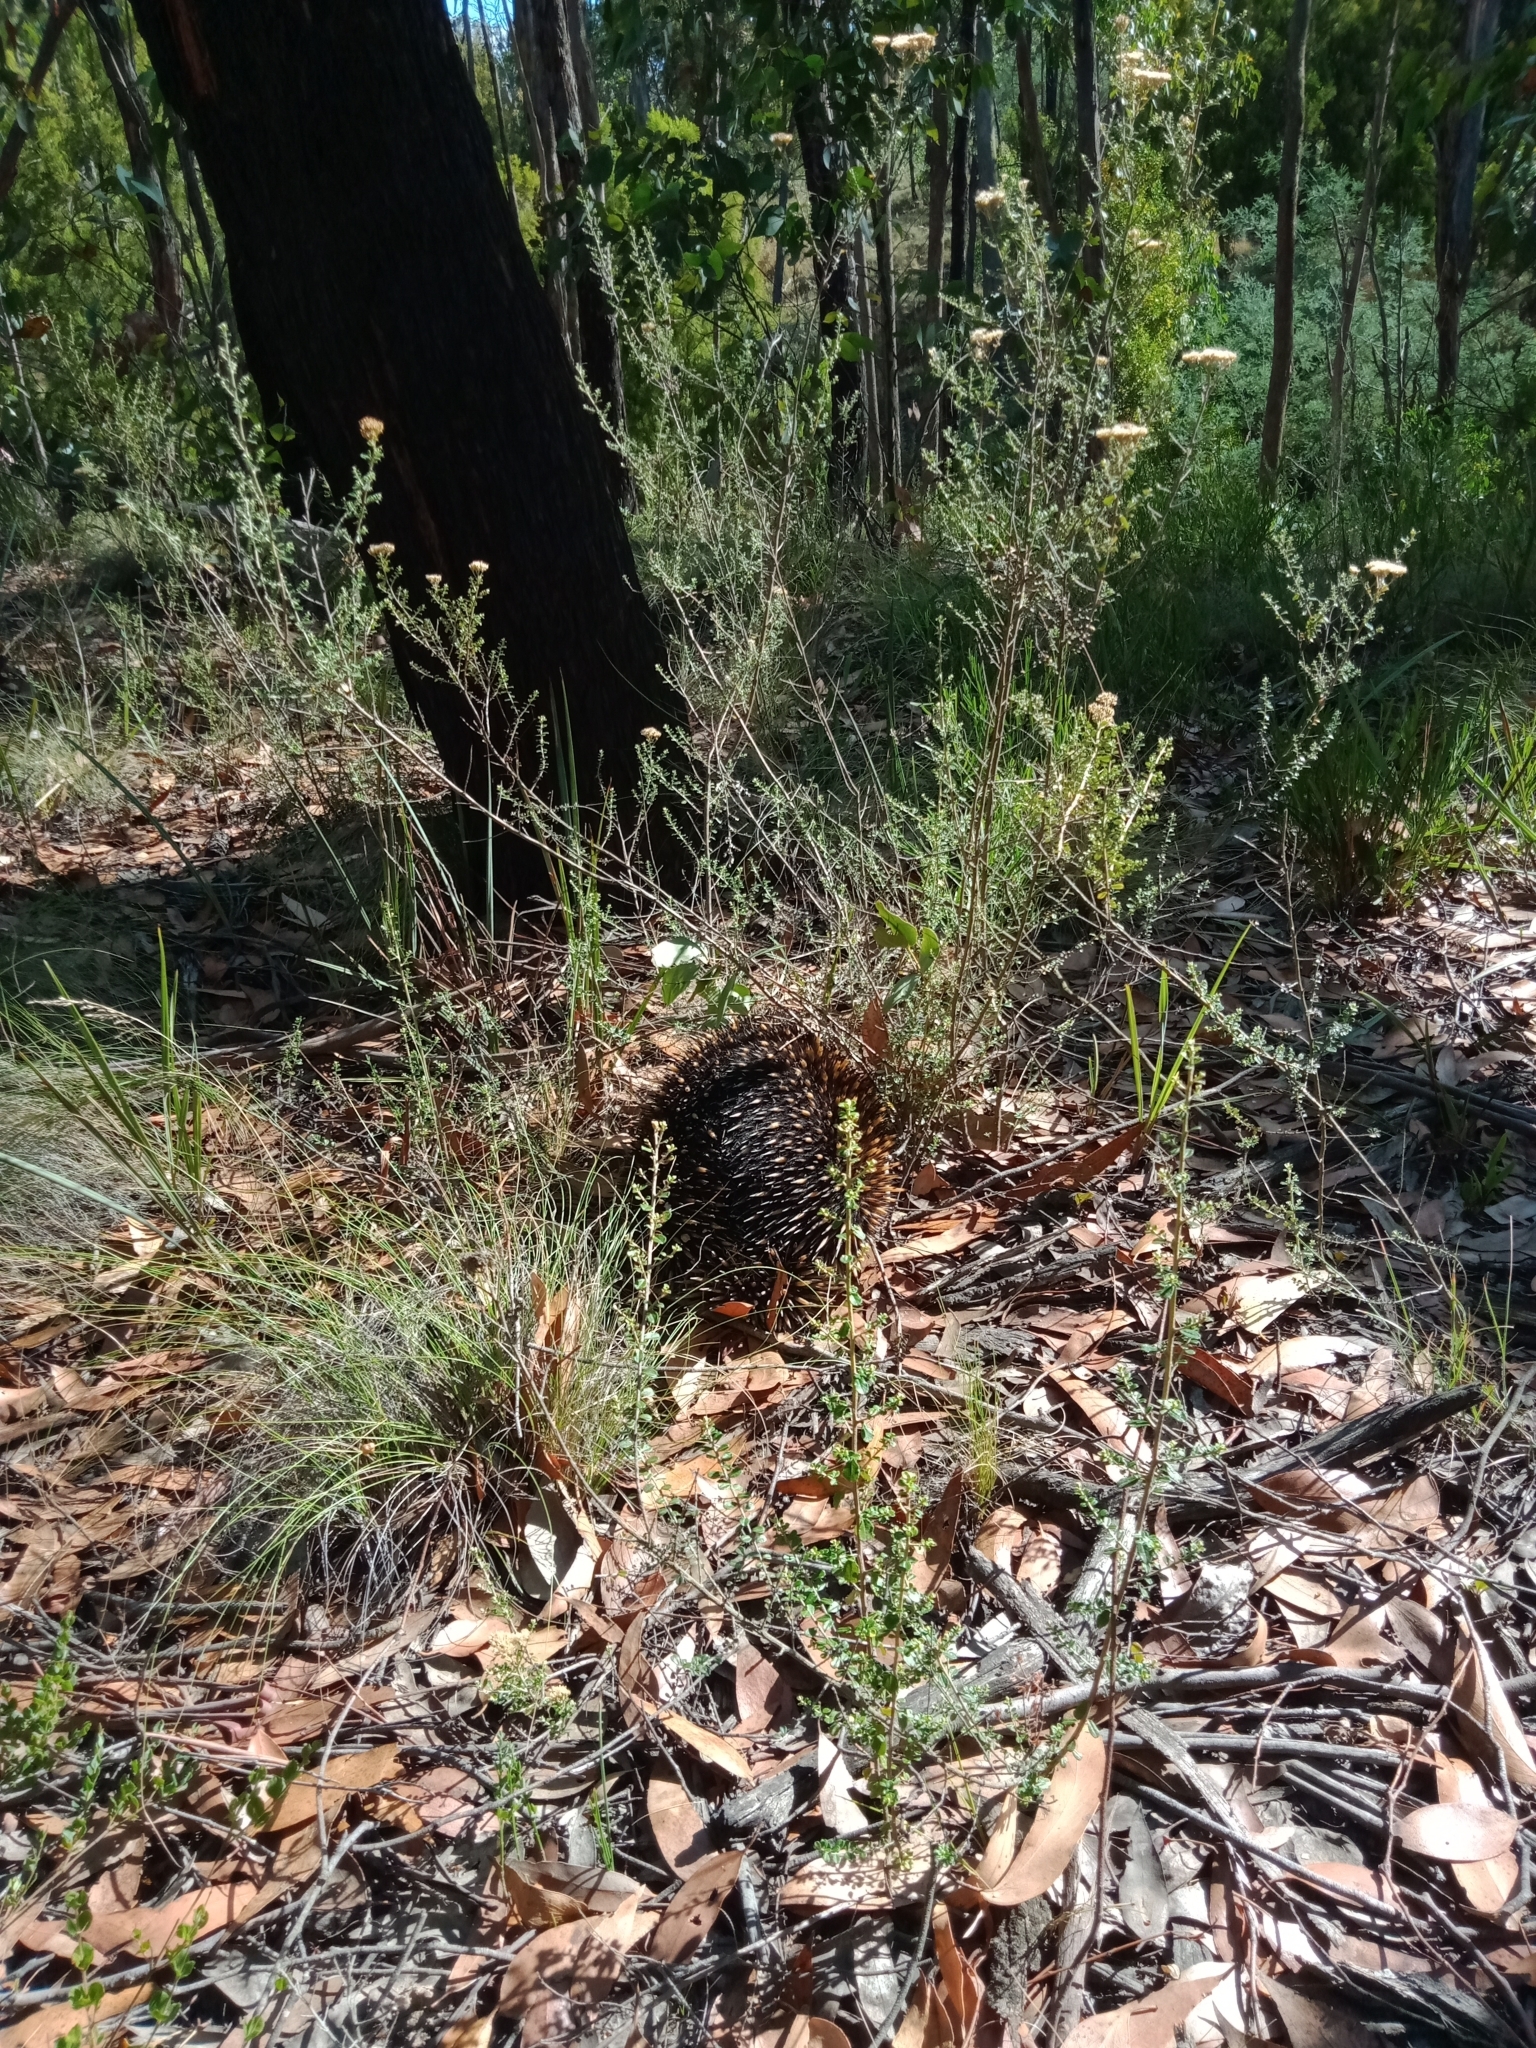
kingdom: Animalia
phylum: Chordata
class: Mammalia
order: Monotremata
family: Tachyglossidae
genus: Tachyglossus
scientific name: Tachyglossus aculeatus
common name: Short-beaked echidna
